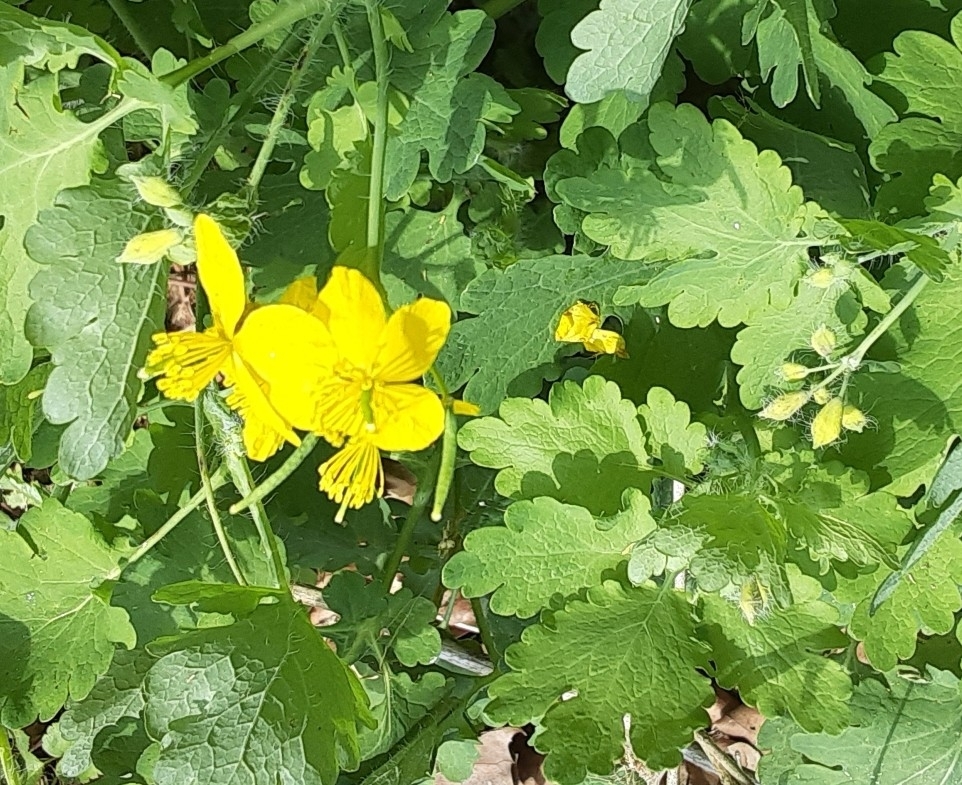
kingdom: Plantae
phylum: Tracheophyta
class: Magnoliopsida
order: Ranunculales
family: Papaveraceae
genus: Chelidonium
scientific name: Chelidonium majus
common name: Greater celandine
